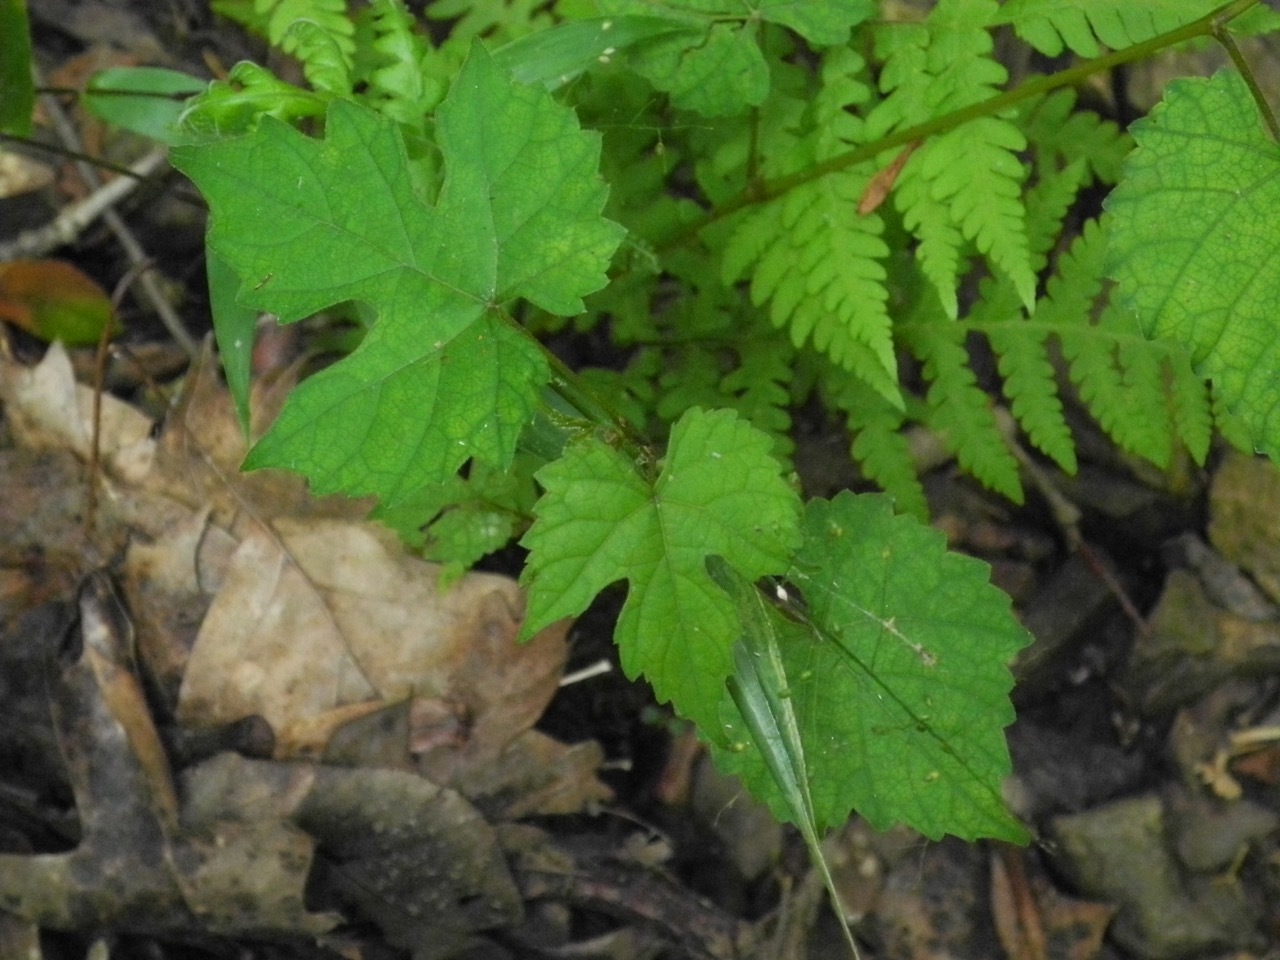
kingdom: Plantae
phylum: Tracheophyta
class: Magnoliopsida
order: Vitales
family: Vitaceae
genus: Ampelopsis
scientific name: Ampelopsis glandulosa
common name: Amur peppervine
